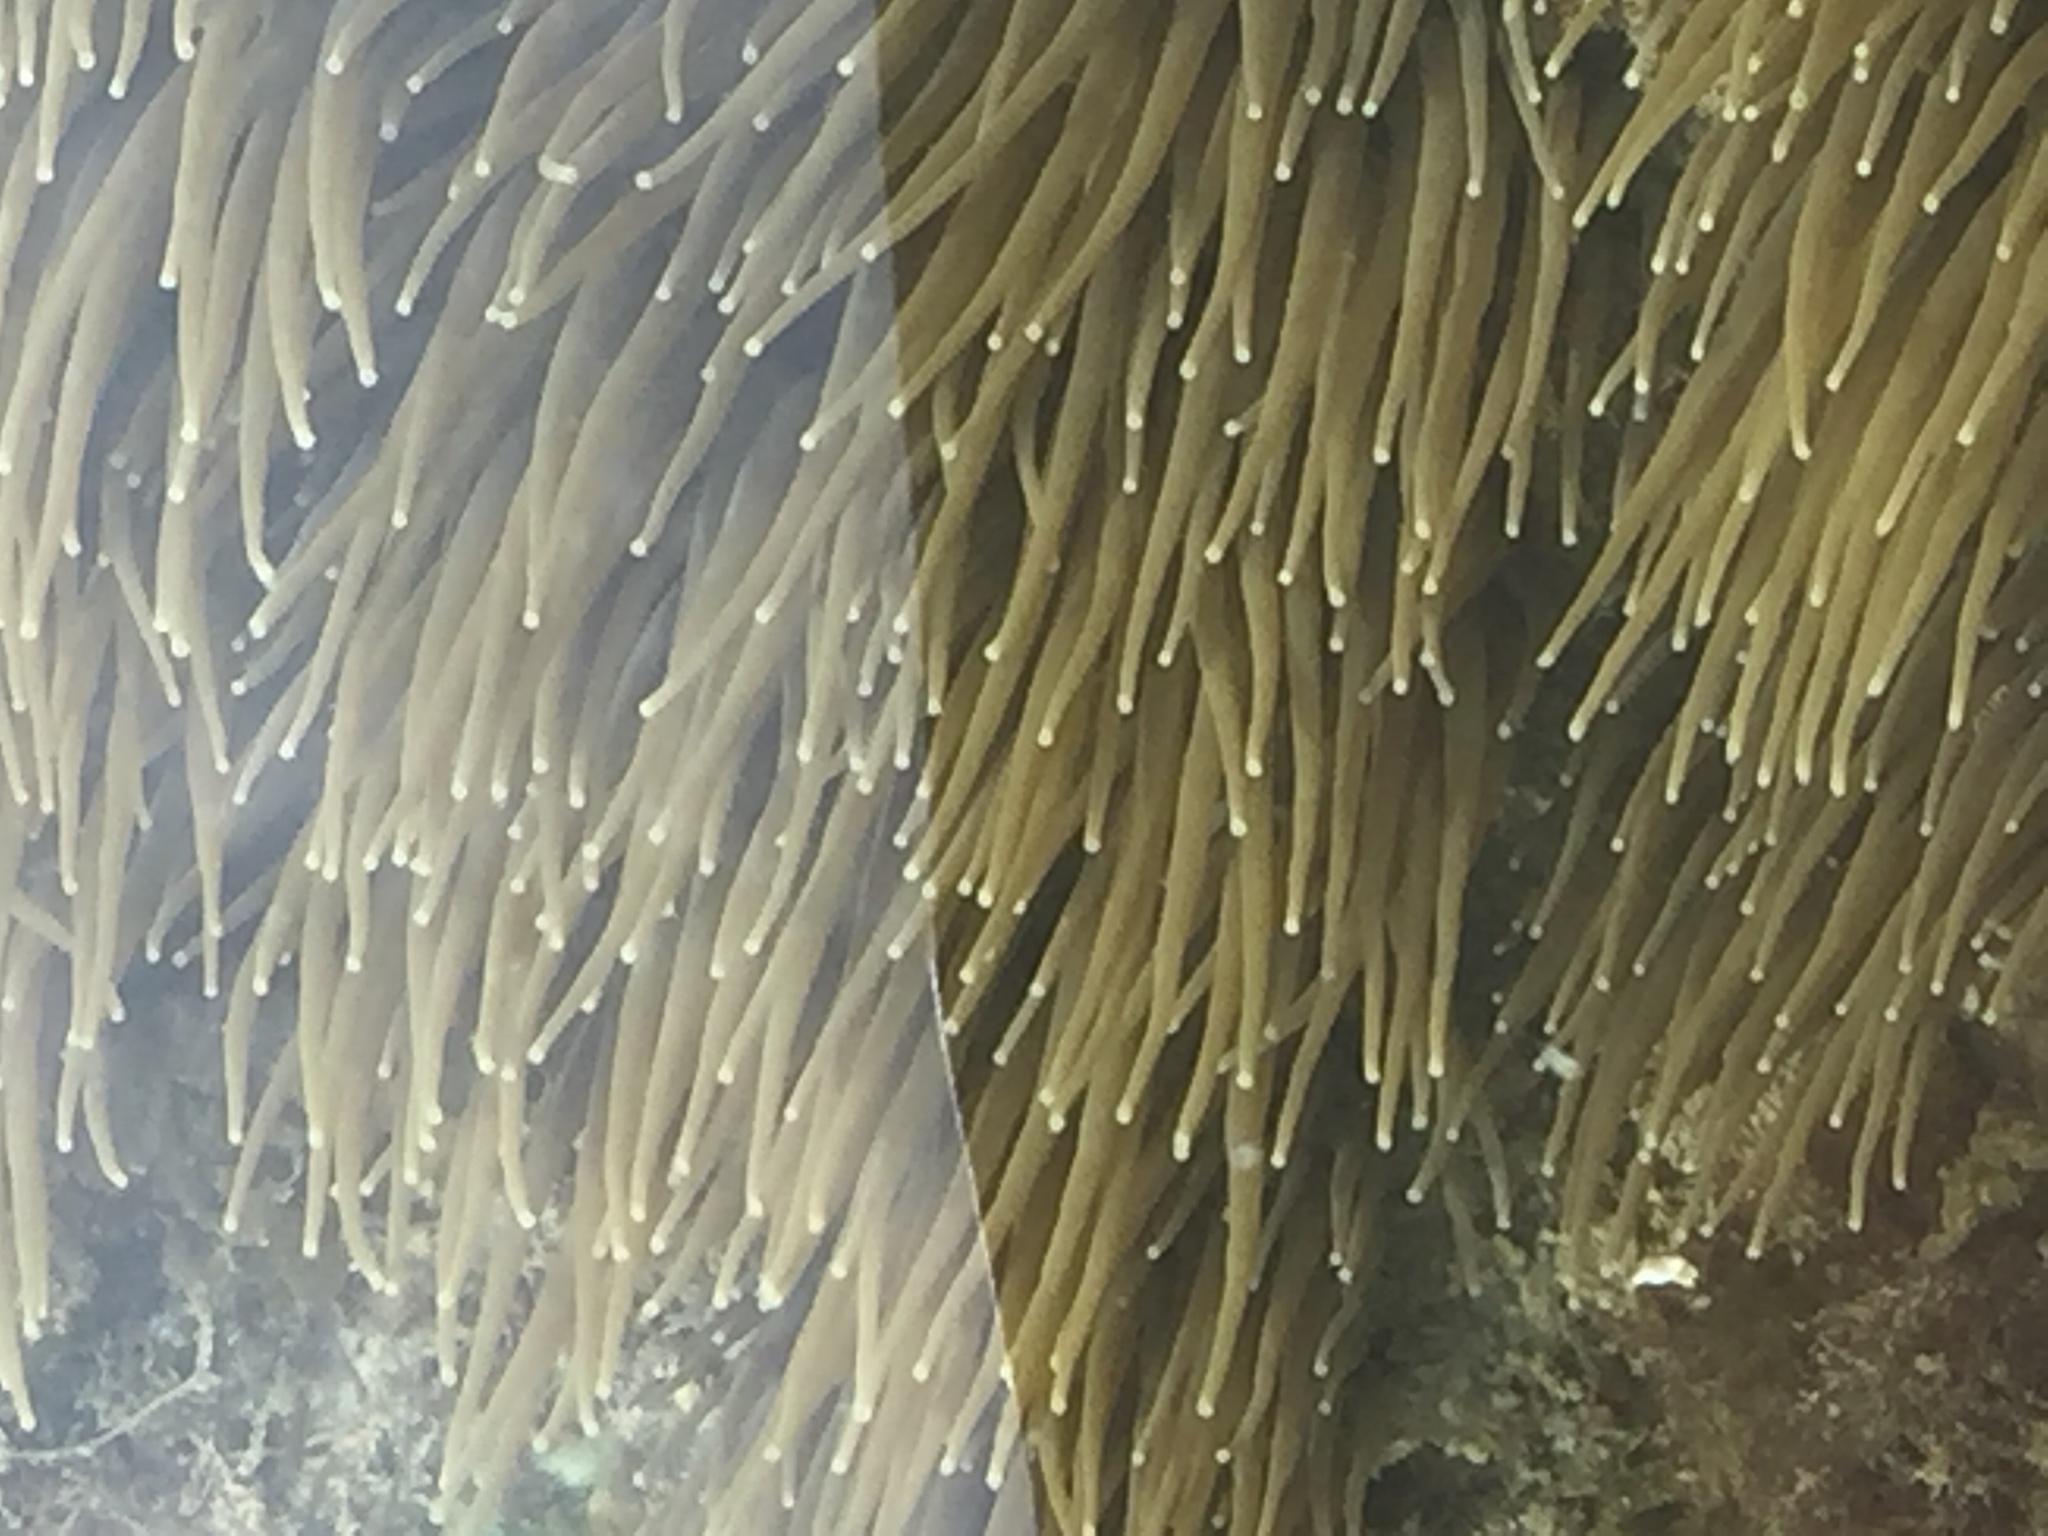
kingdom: Animalia
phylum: Cnidaria
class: Anthozoa
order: Actiniaria
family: Actiniidae
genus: Anemonia
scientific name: Anemonia viridis
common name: Snakelocks anemone
